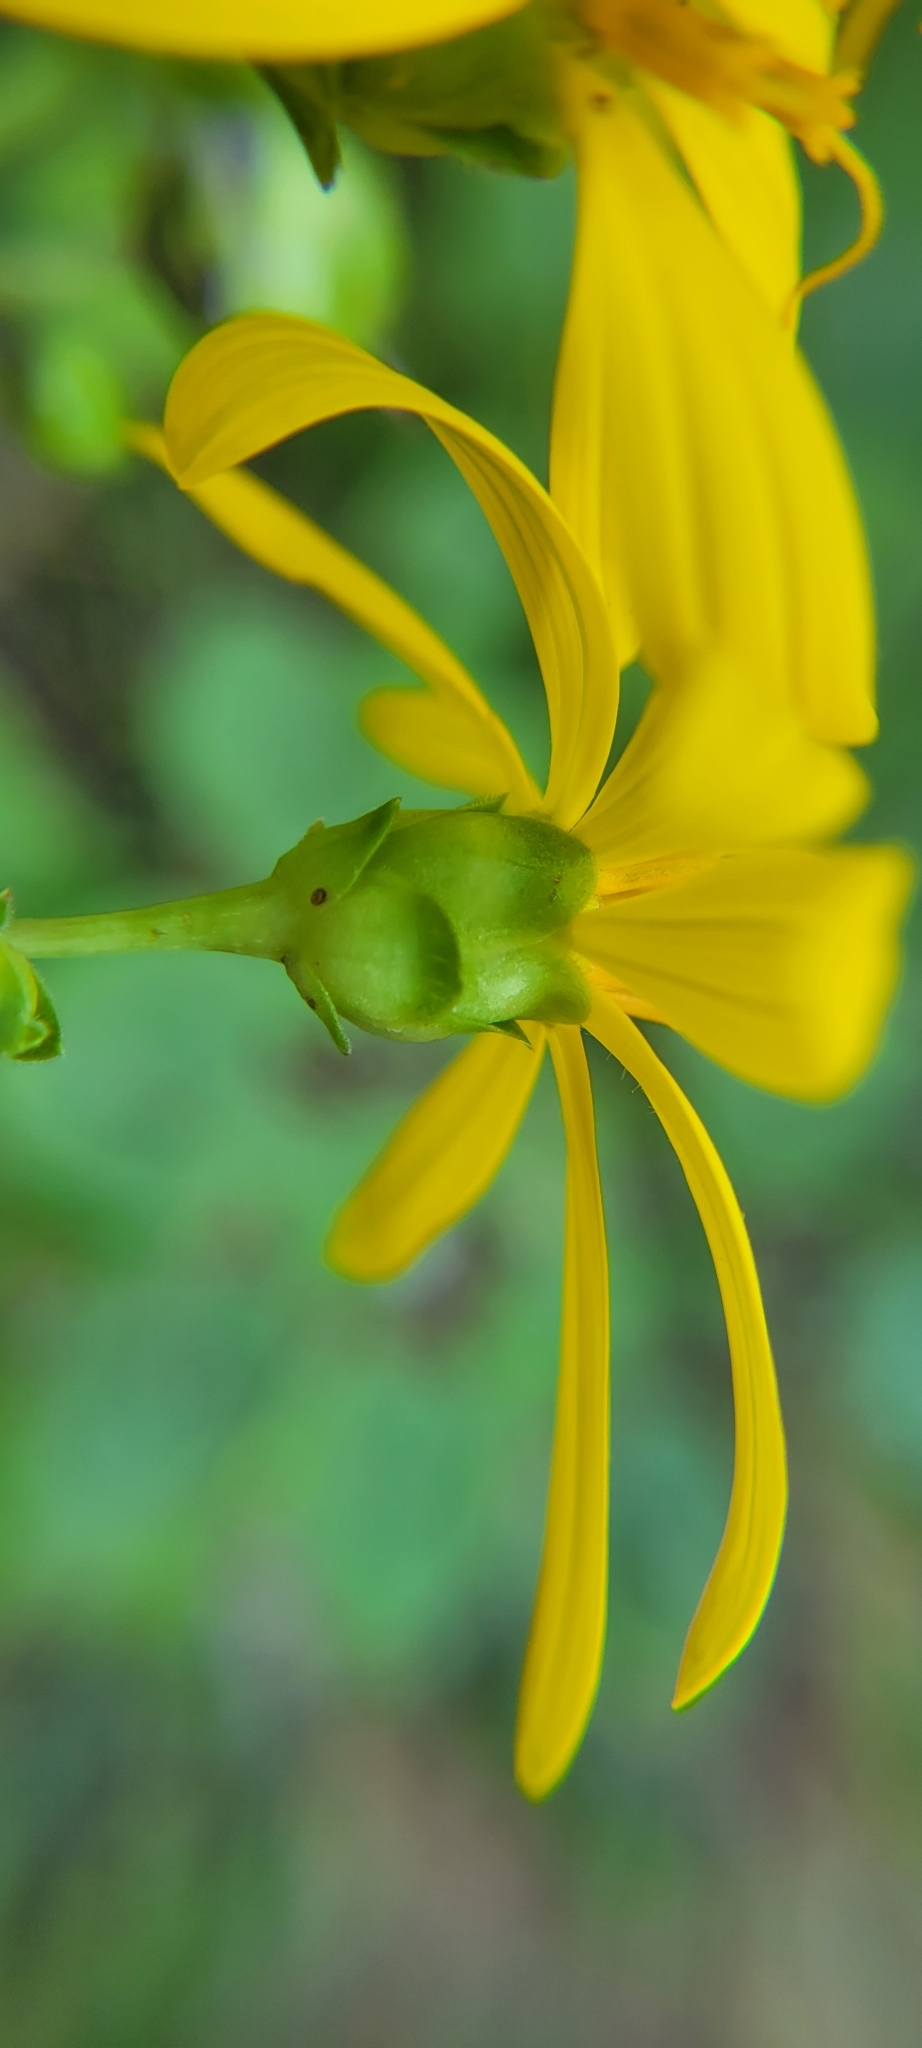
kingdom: Plantae
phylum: Tracheophyta
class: Magnoliopsida
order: Asterales
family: Asteraceae
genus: Silphium
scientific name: Silphium asteriscus
